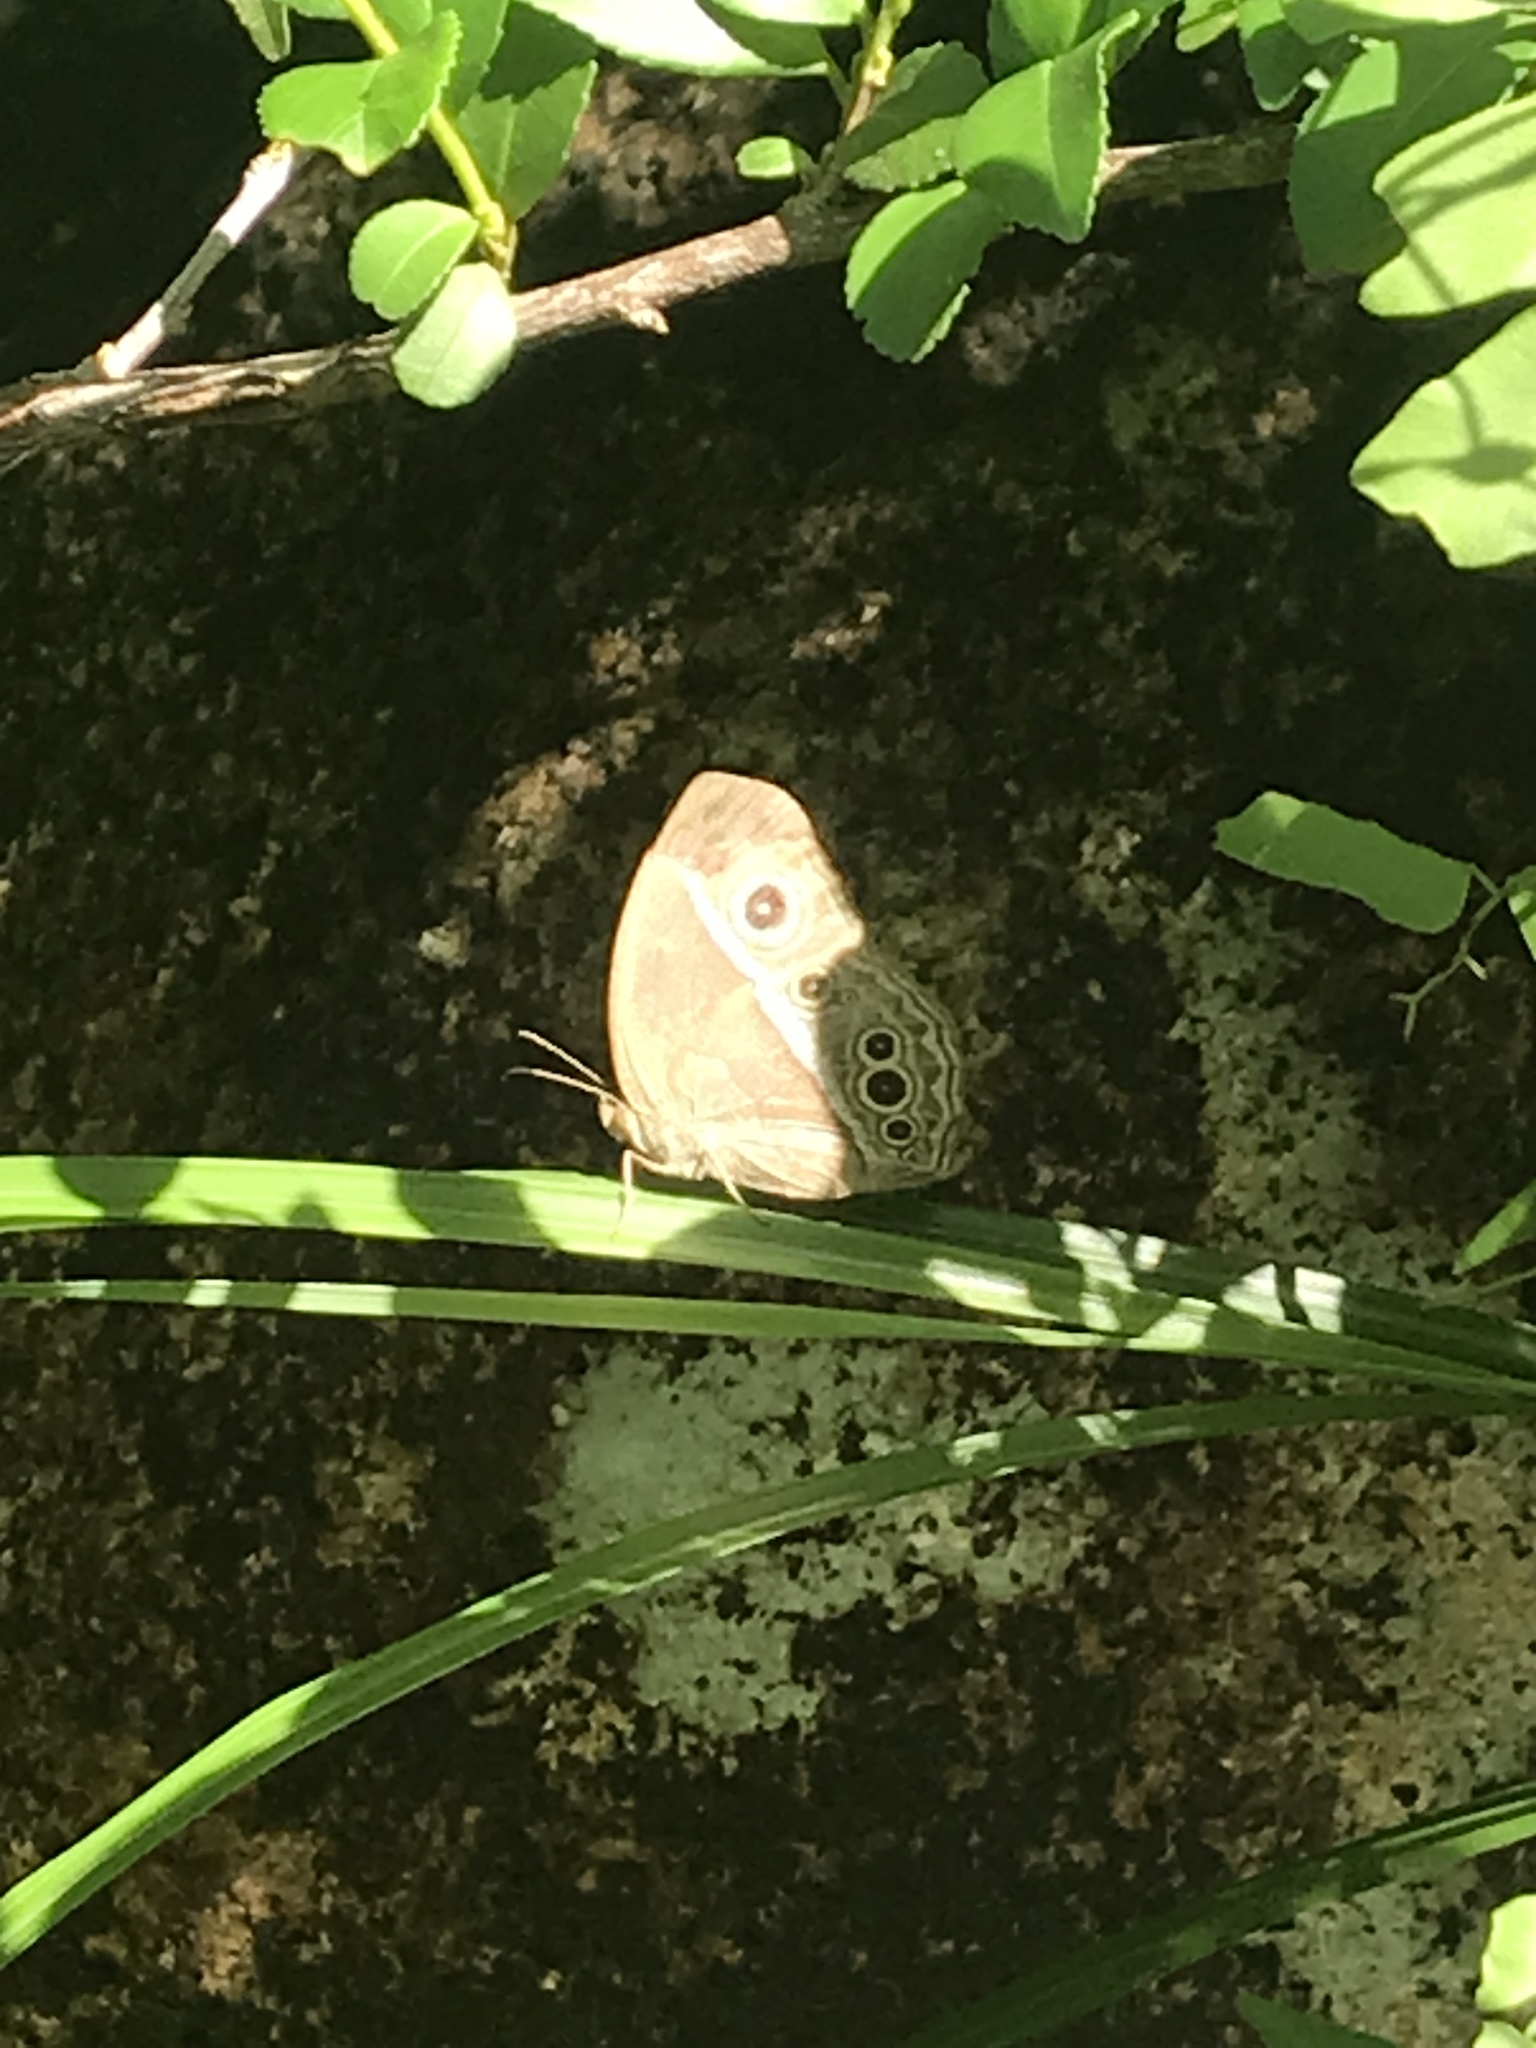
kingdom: Animalia
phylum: Arthropoda
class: Insecta
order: Lepidoptera
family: Nymphalidae
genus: Mycalesis
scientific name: Mycalesis horsfieldii
